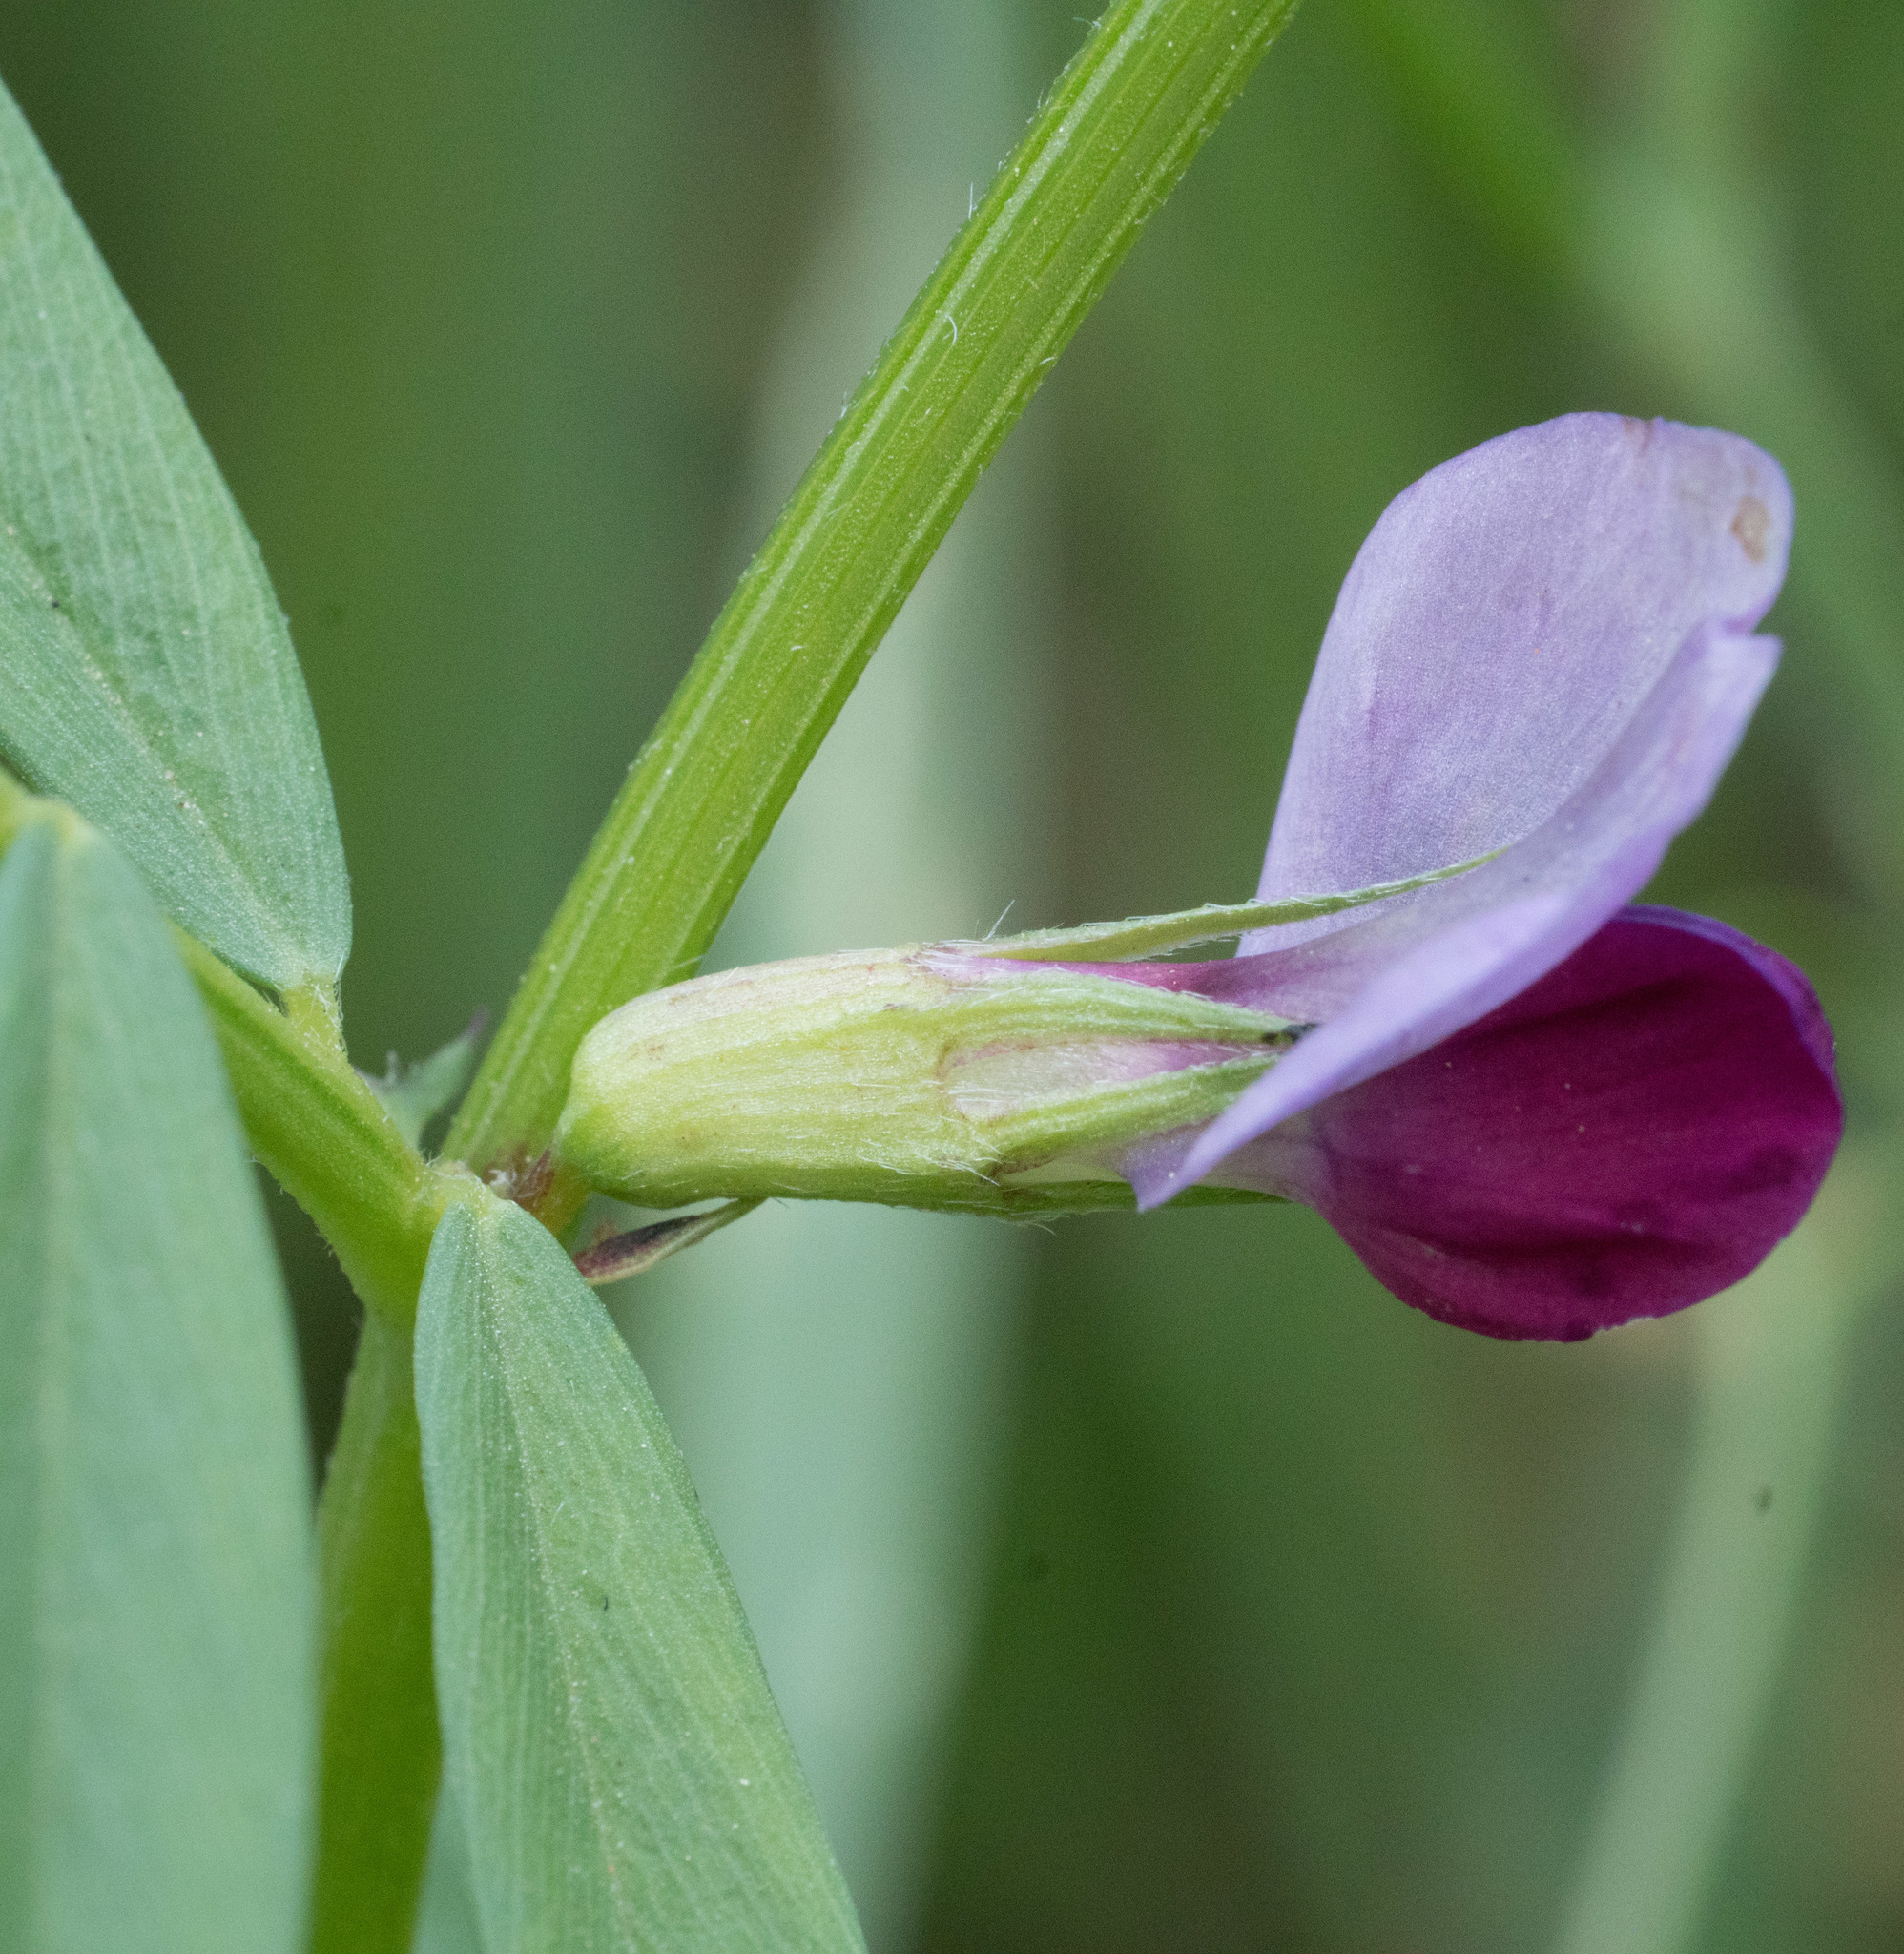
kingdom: Plantae
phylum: Tracheophyta
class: Magnoliopsida
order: Fabales
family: Fabaceae
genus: Vicia
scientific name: Vicia sativa
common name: Garden vetch
